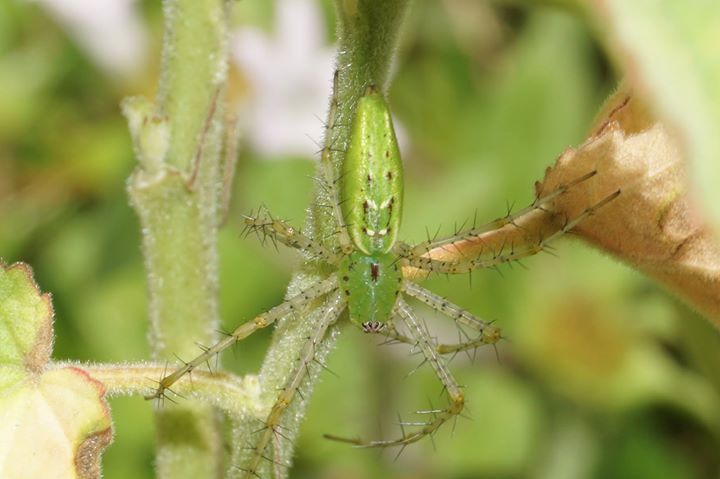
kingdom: Animalia
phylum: Arthropoda
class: Arachnida
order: Araneae
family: Oxyopidae
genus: Peucetia
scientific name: Peucetia viridans
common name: Lynx spiders
